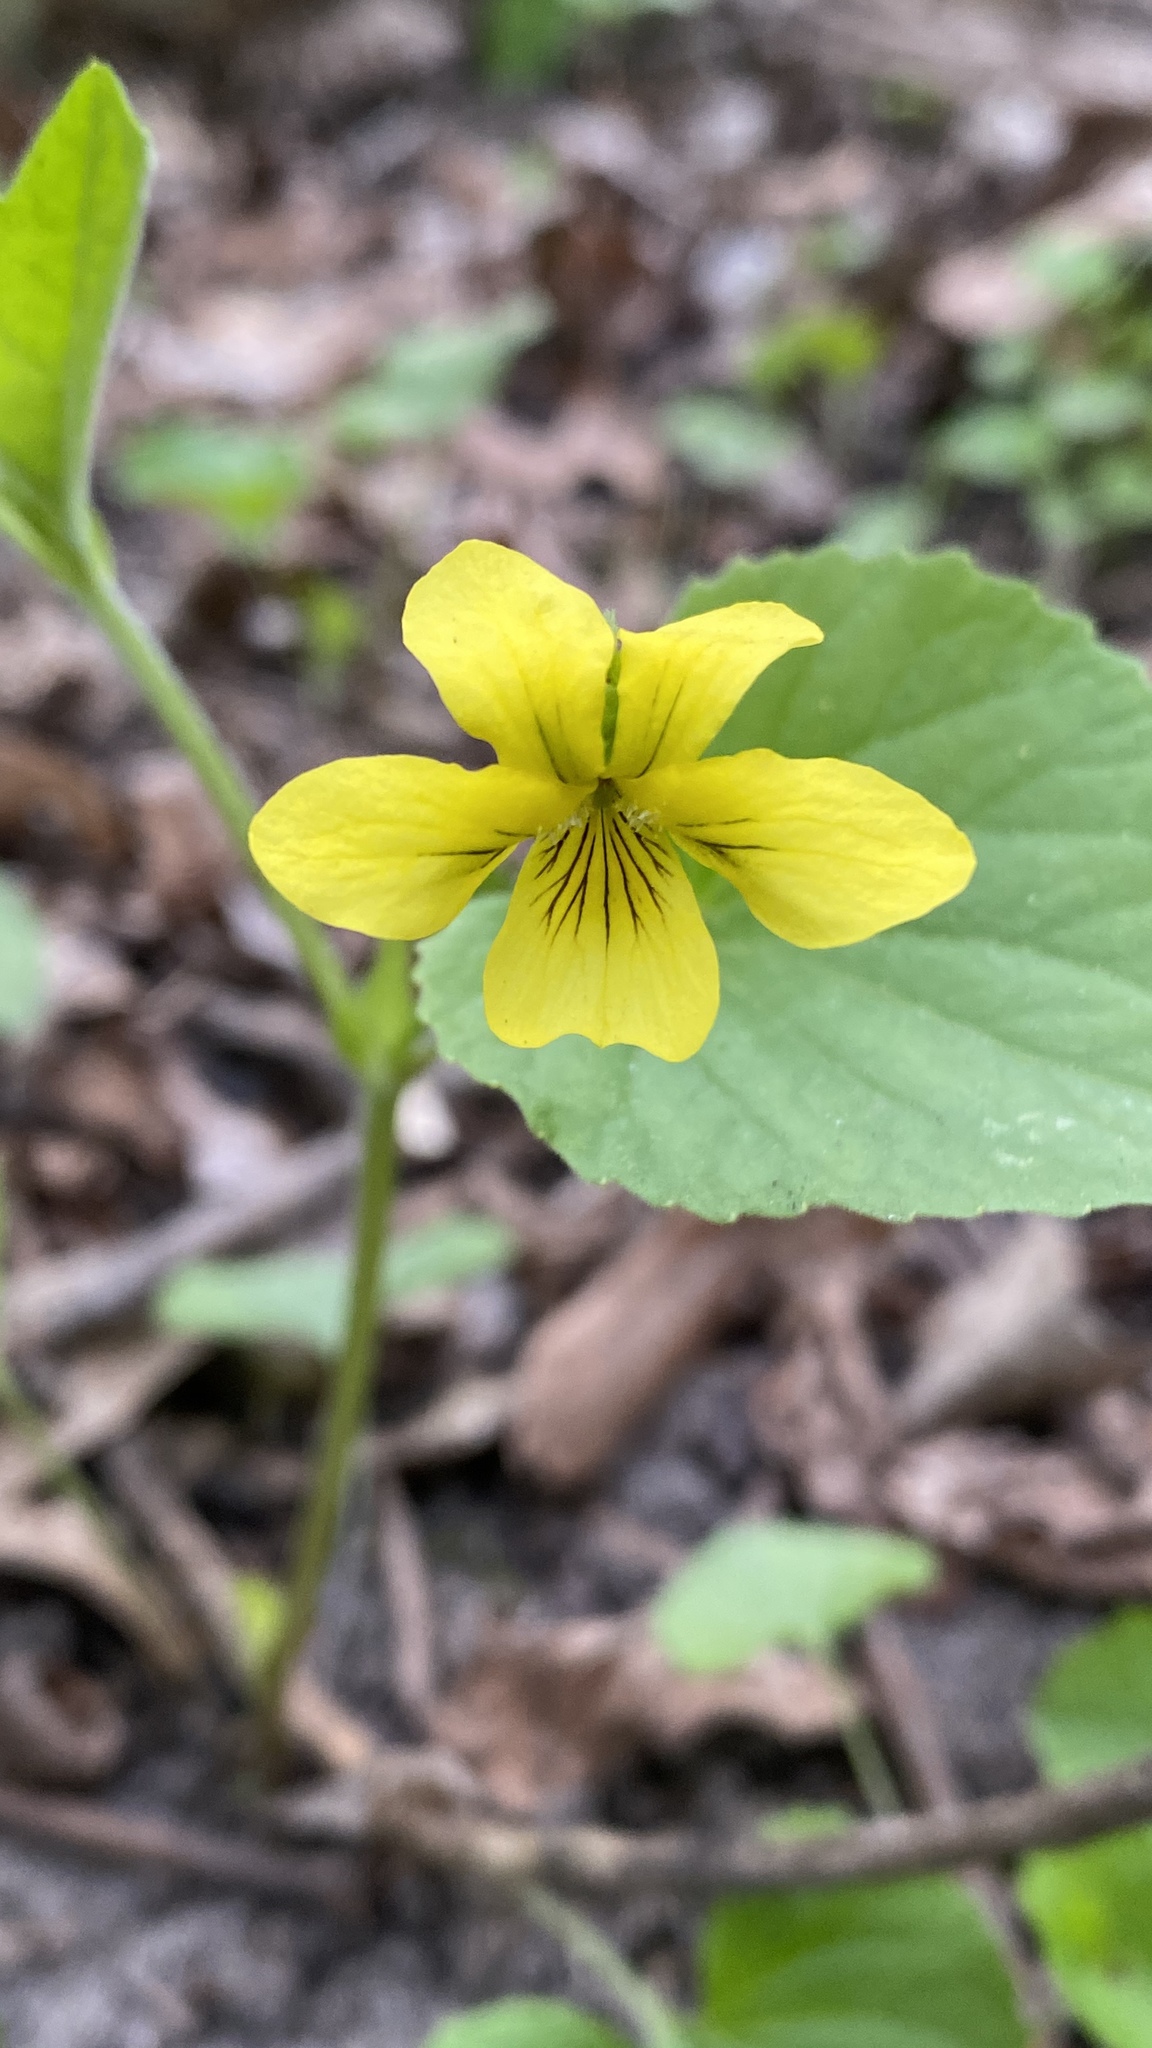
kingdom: Plantae
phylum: Tracheophyta
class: Magnoliopsida
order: Malpighiales
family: Violaceae
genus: Viola
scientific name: Viola eriocarpa
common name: Smooth yellow violet
